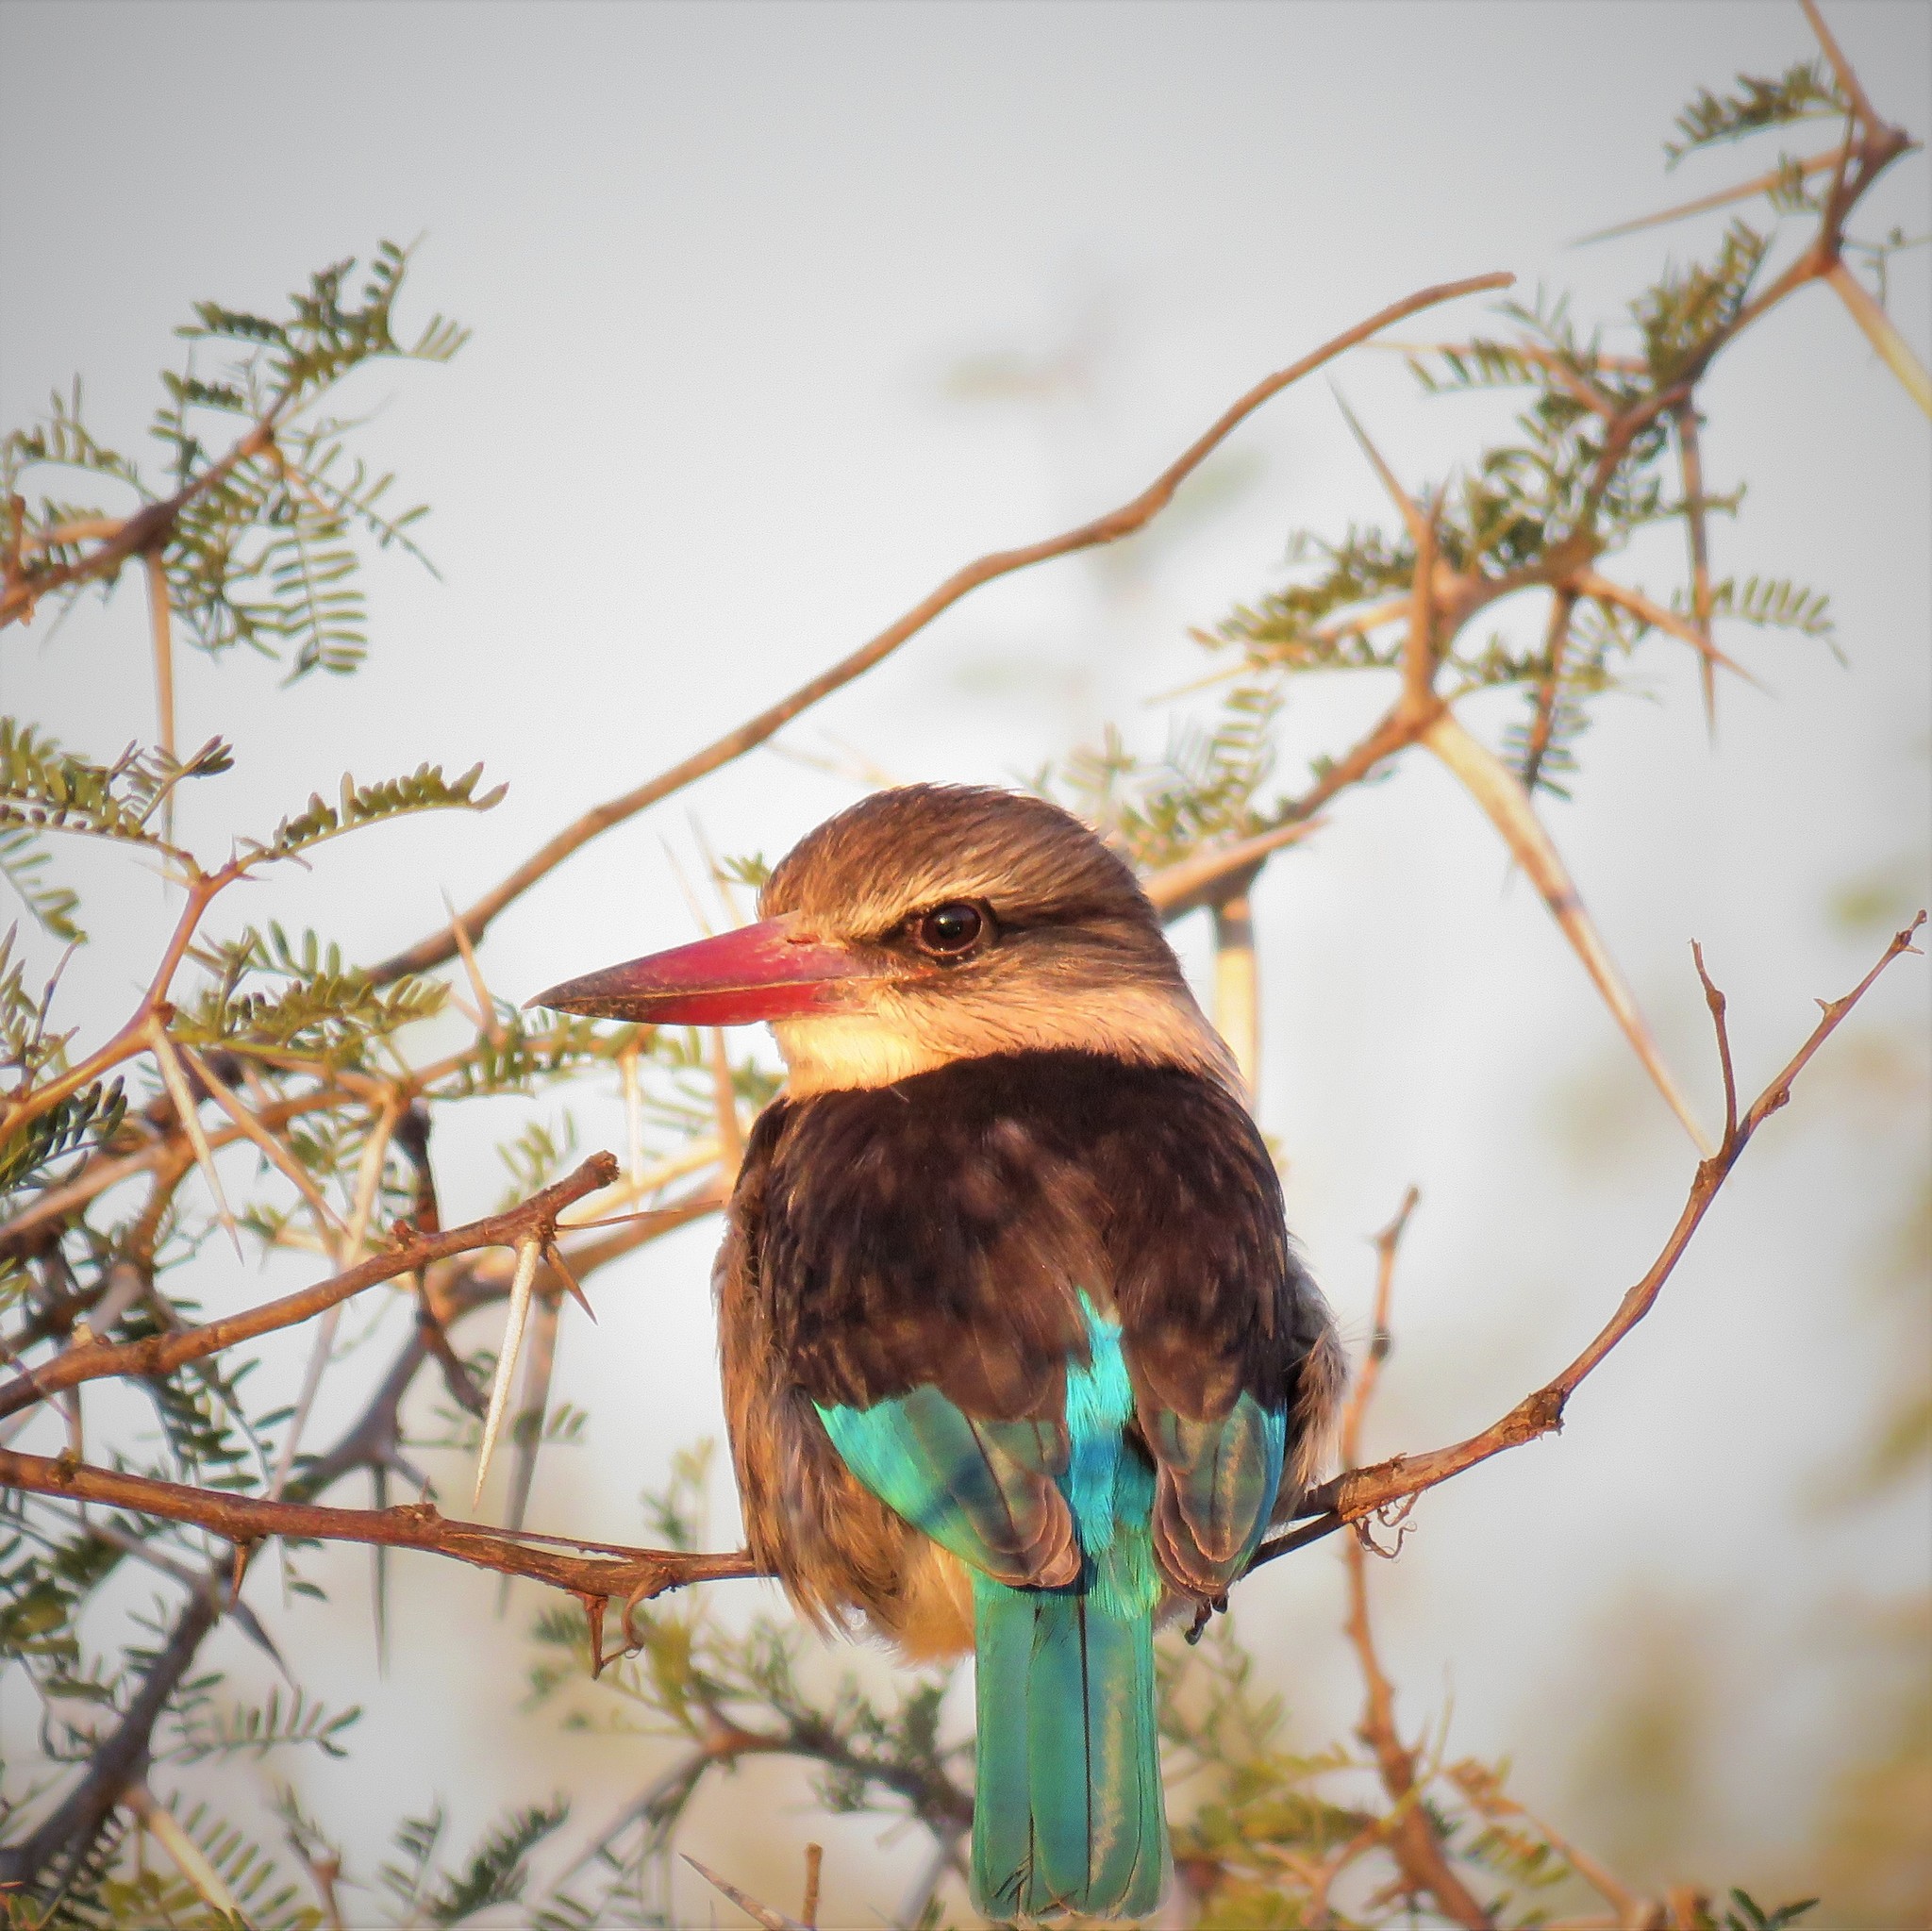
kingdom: Animalia
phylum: Chordata
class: Aves
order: Coraciiformes
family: Alcedinidae
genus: Halcyon
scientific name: Halcyon albiventris
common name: Brown-hooded kingfisher
